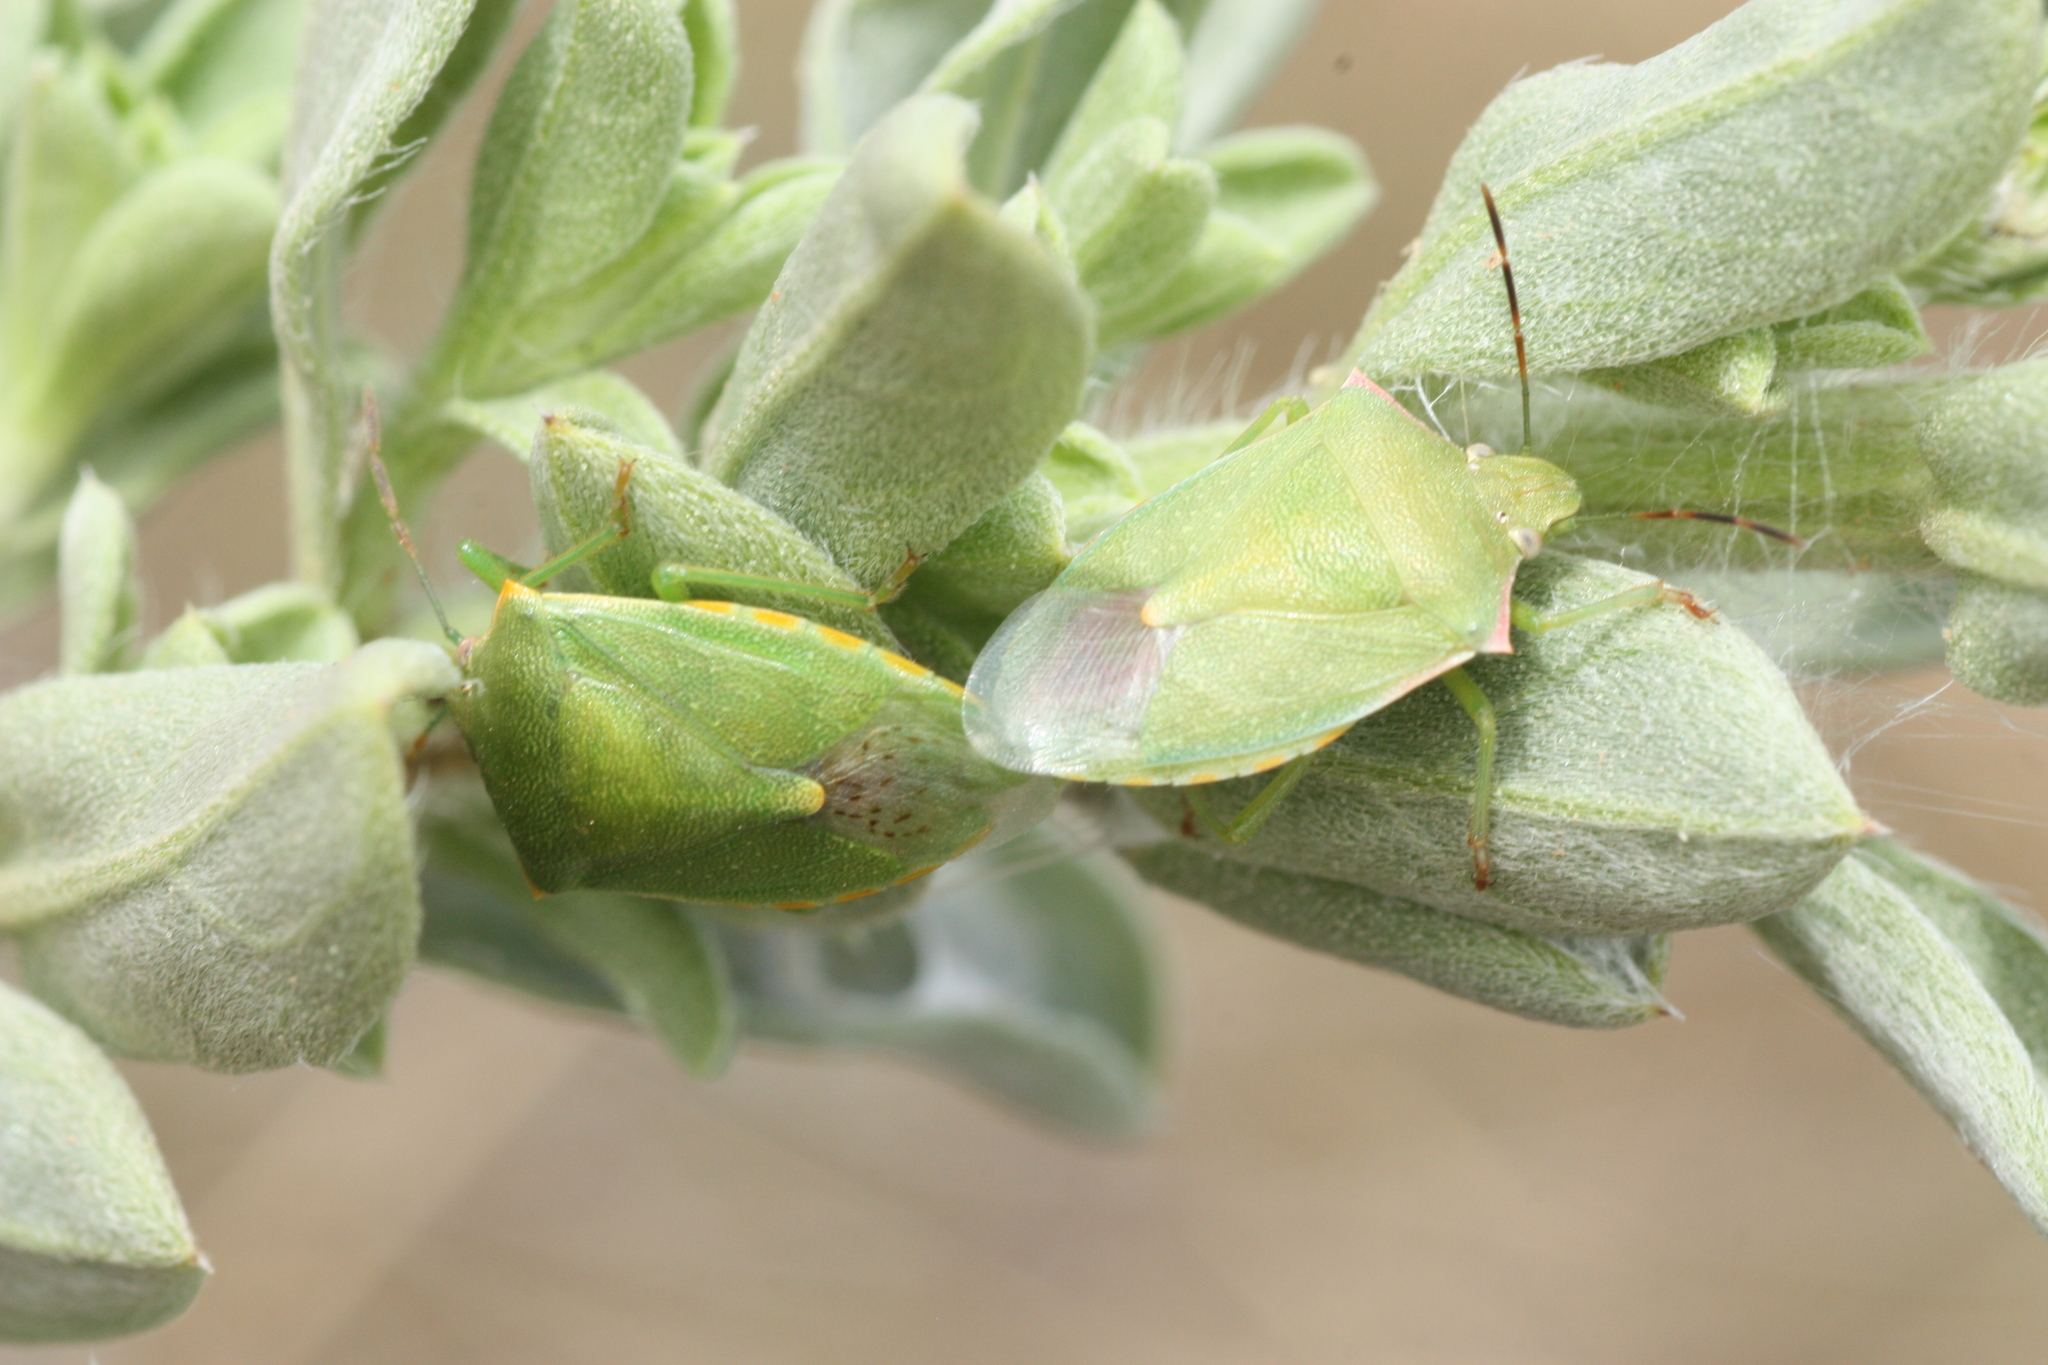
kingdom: Animalia
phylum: Arthropoda
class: Insecta
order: Hemiptera
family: Pentatomidae
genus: Thyanta
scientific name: Thyanta custator
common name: Stink bug
